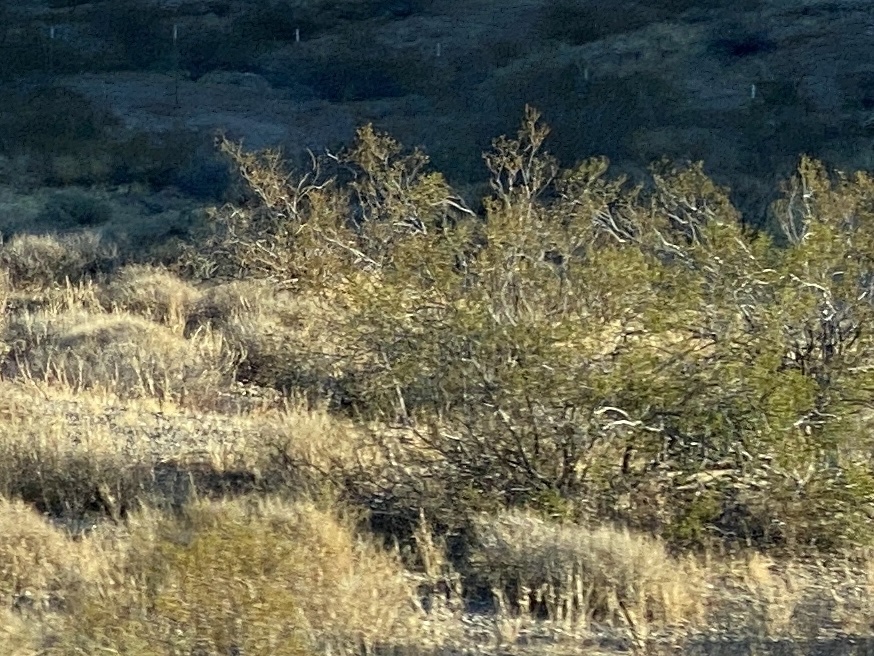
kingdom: Plantae
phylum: Tracheophyta
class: Magnoliopsida
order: Zygophyllales
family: Zygophyllaceae
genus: Larrea
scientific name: Larrea tridentata
